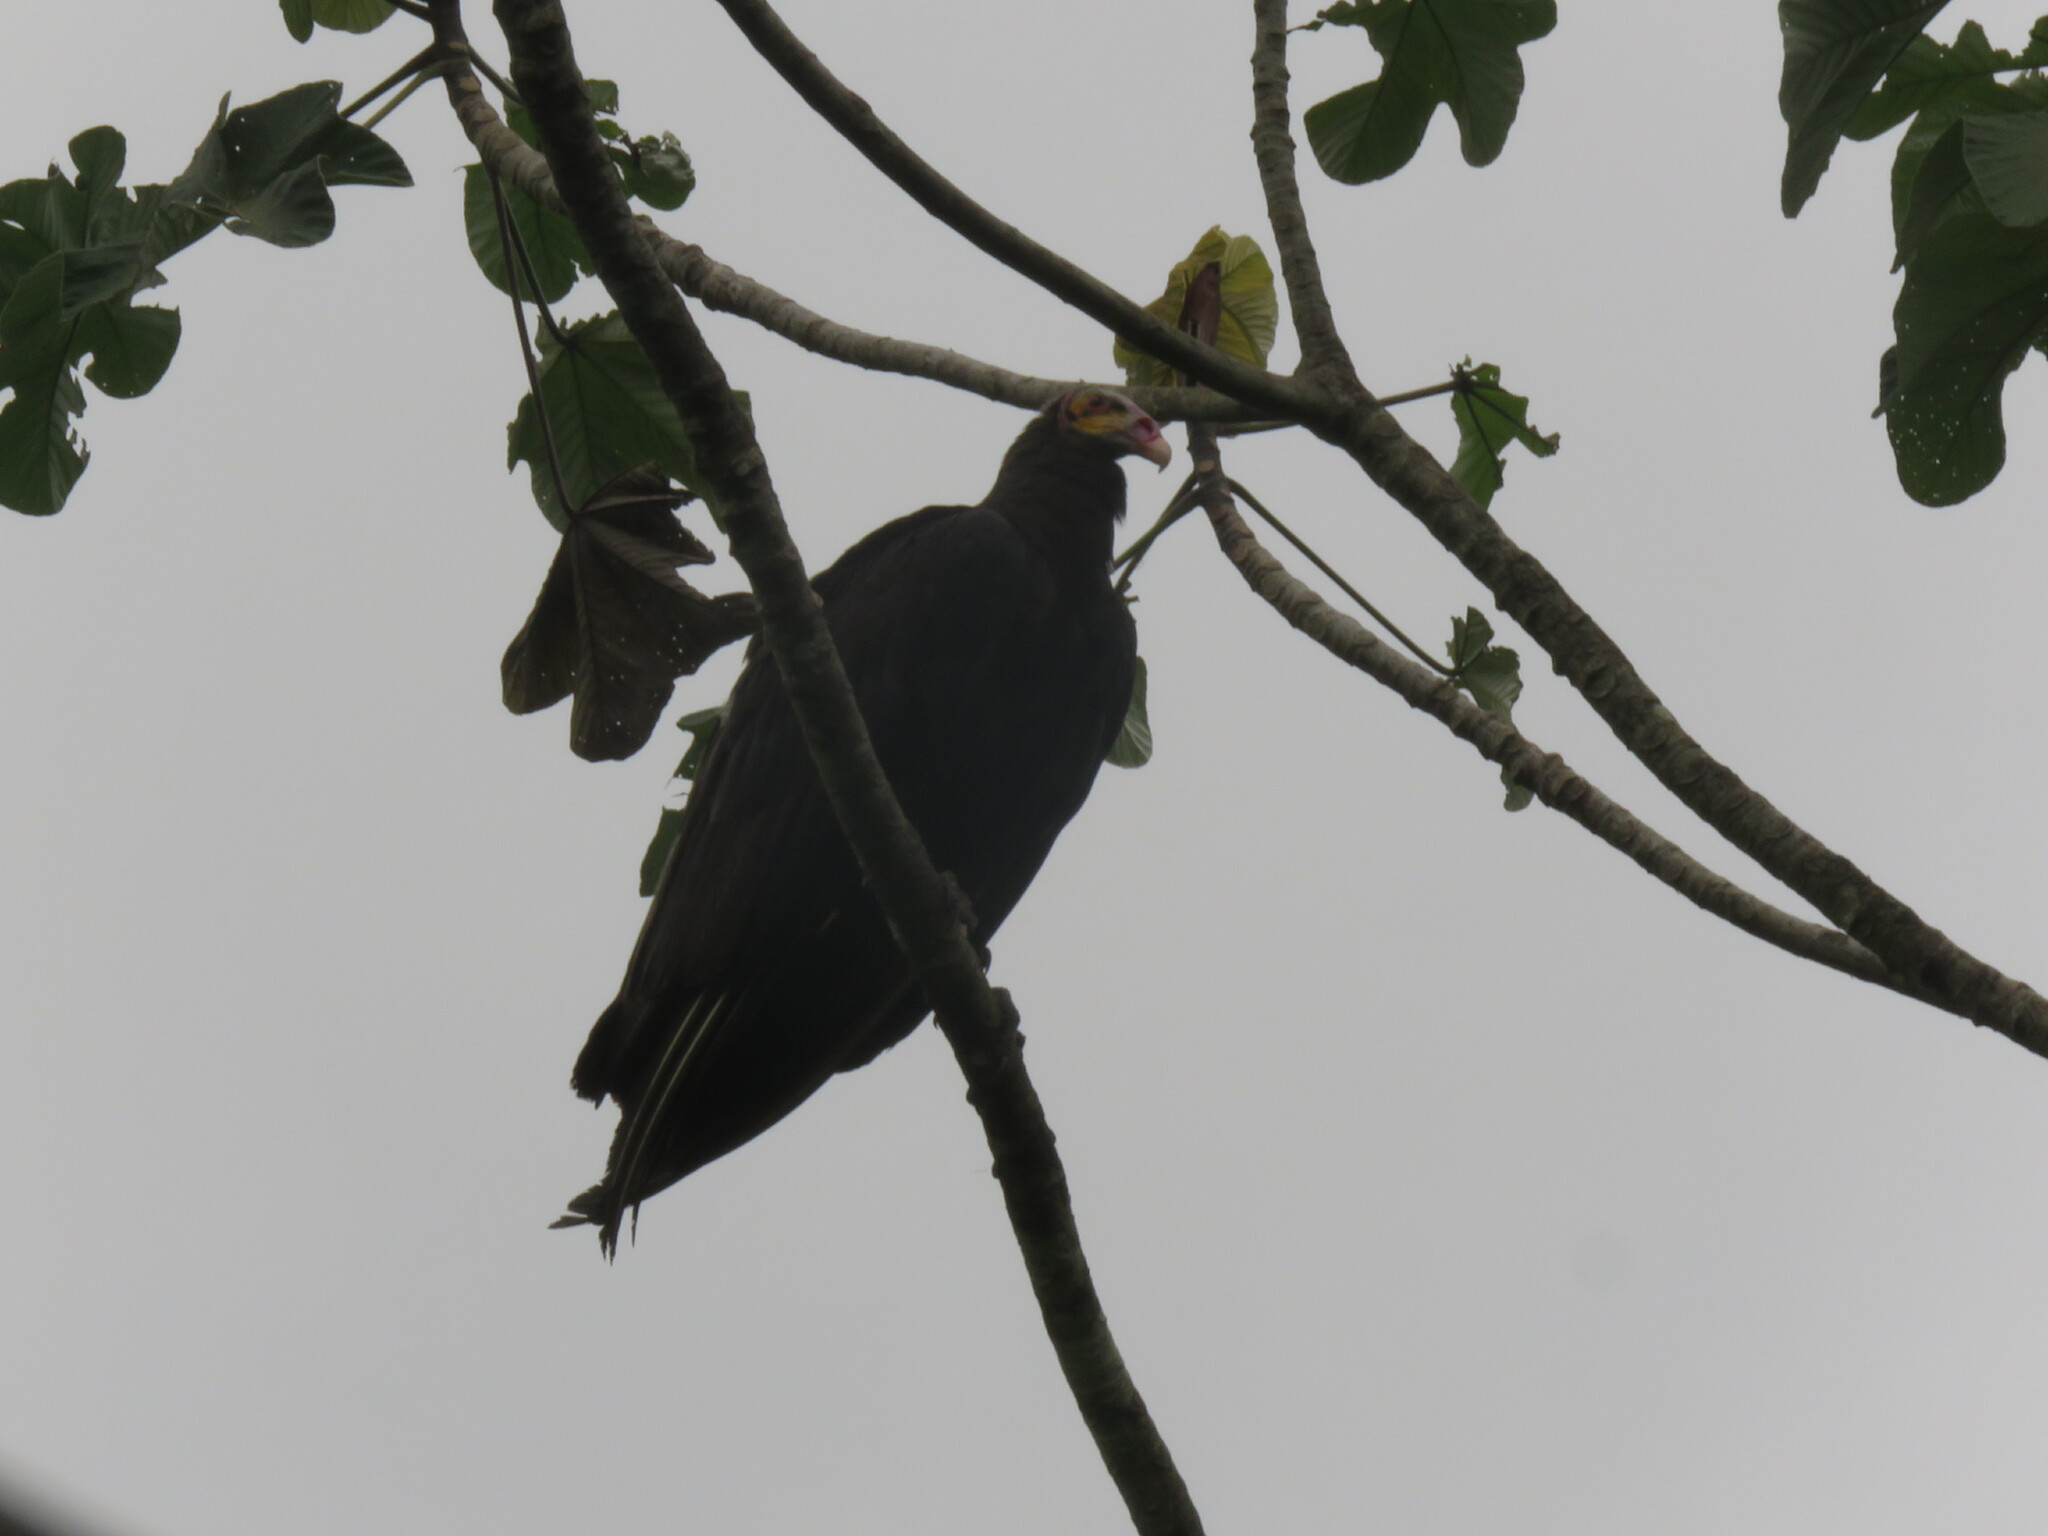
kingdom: Animalia
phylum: Chordata
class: Aves
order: Accipitriformes
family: Cathartidae
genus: Cathartes
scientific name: Cathartes burrovianus
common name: Lesser yellow-headed vulture
